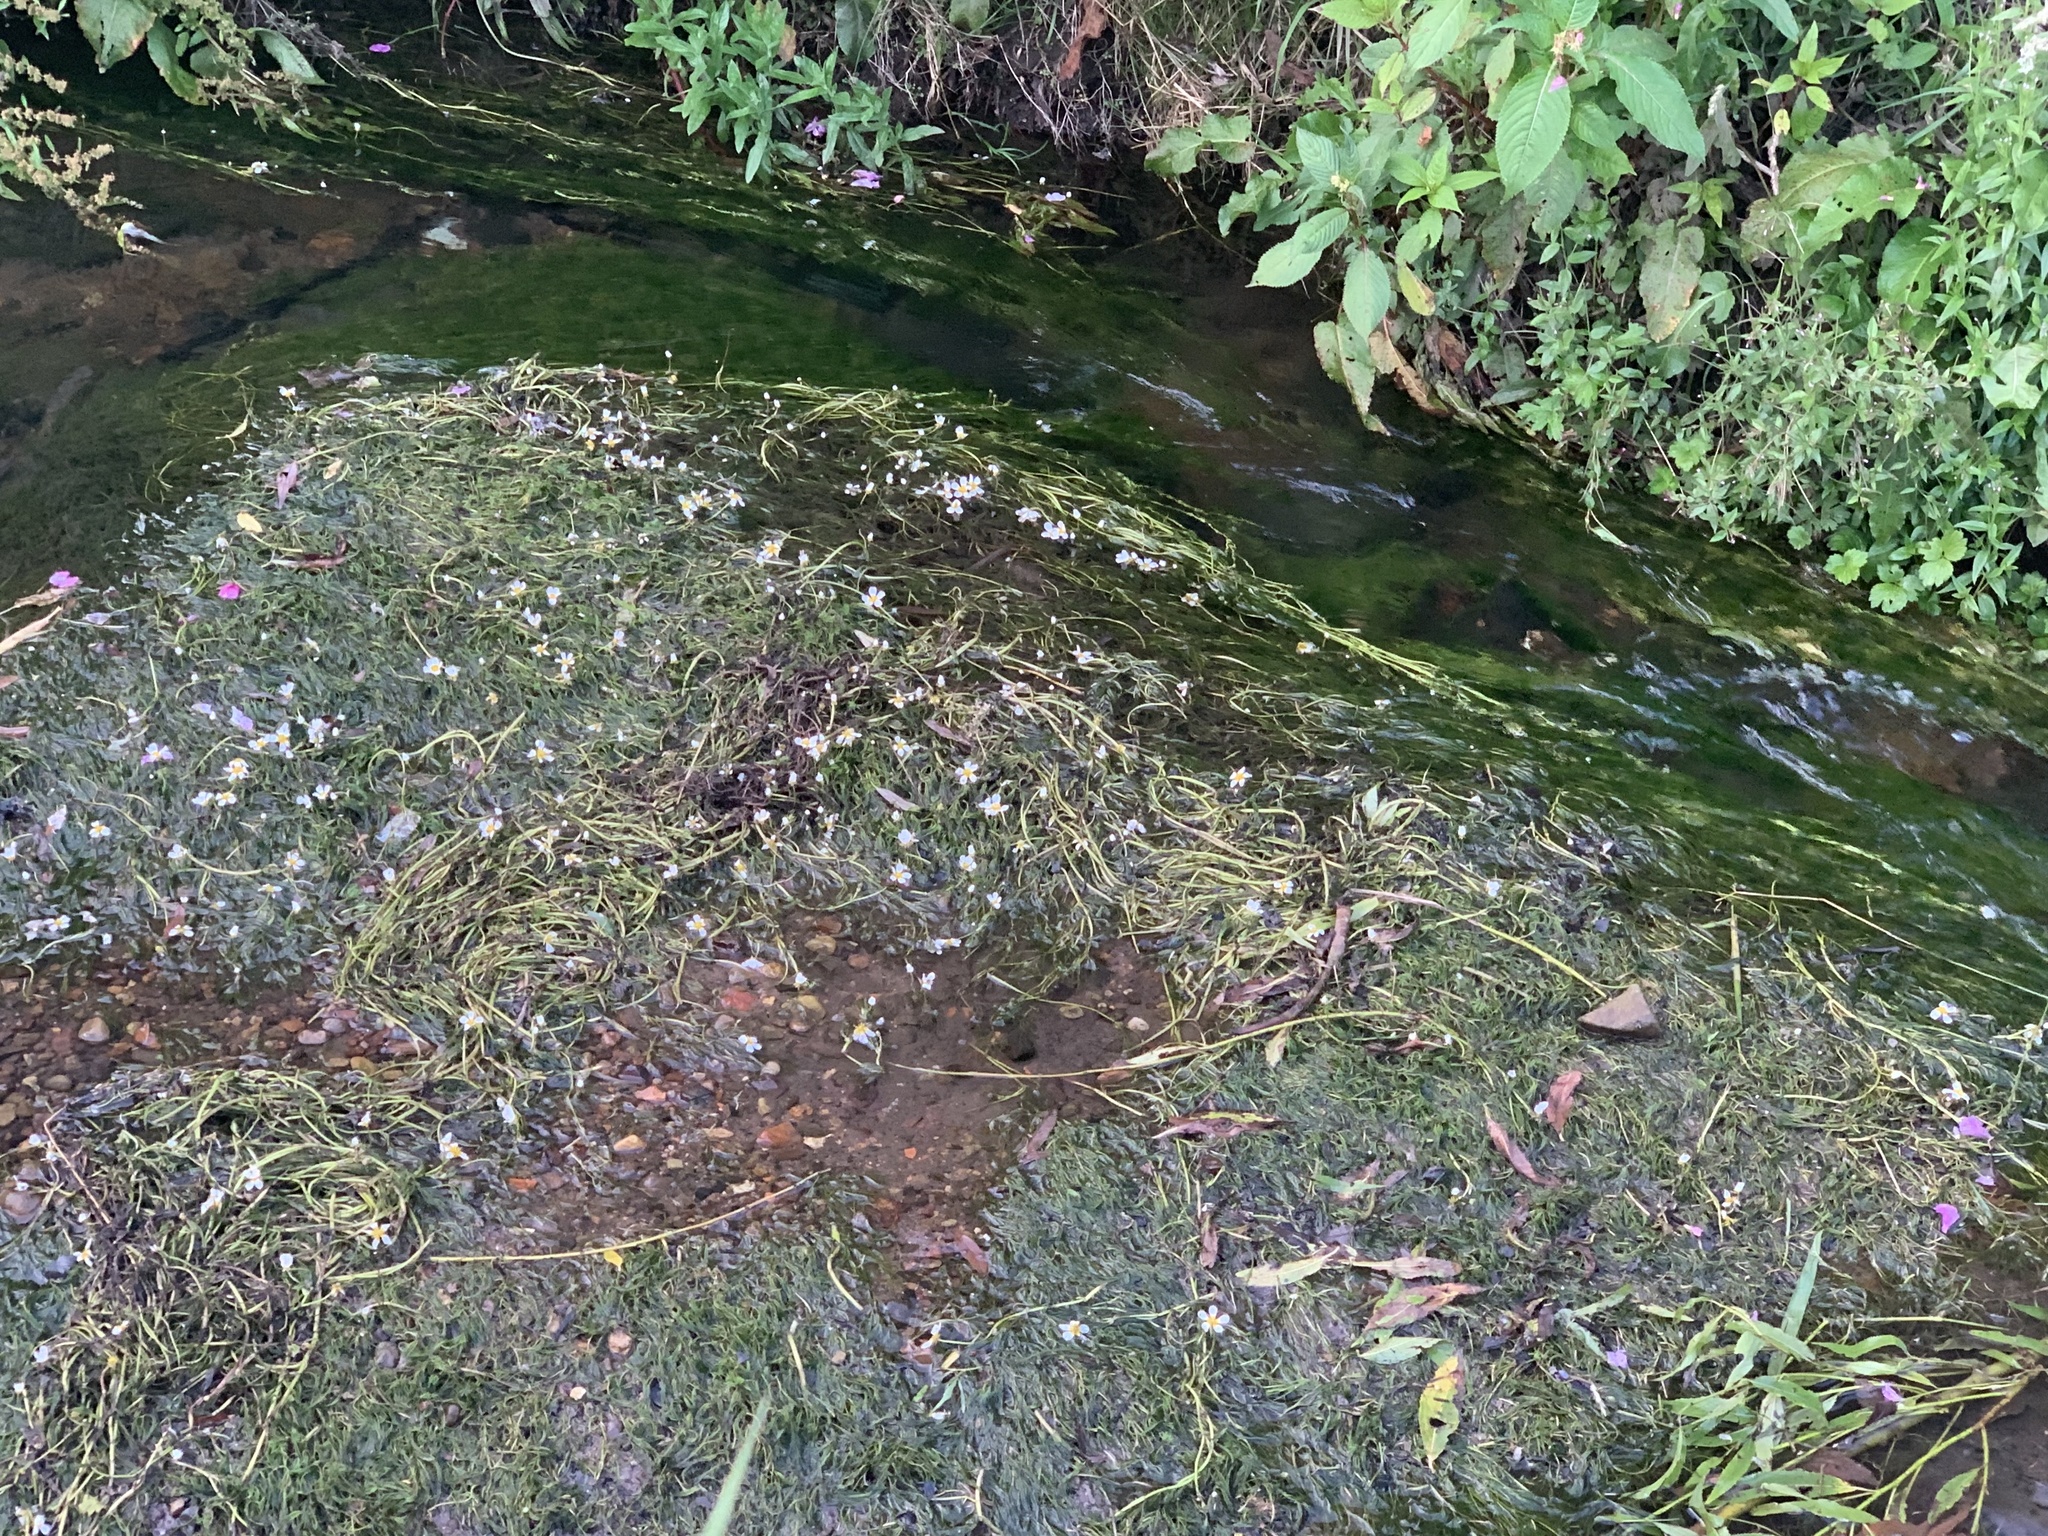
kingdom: Plantae
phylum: Tracheophyta
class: Magnoliopsida
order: Ranunculales
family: Ranunculaceae
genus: Ranunculus
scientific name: Ranunculus aquatilis
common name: Common water-crowfoot
